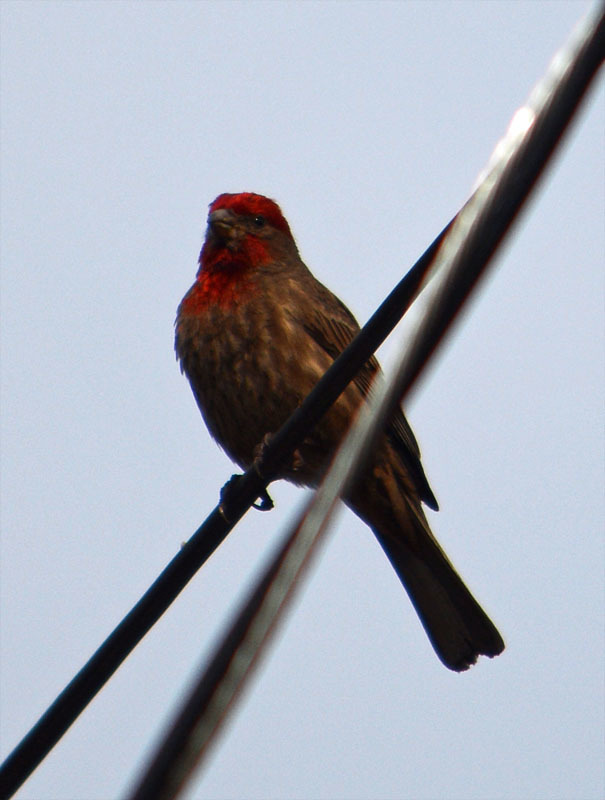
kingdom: Animalia
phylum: Chordata
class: Aves
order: Passeriformes
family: Fringillidae
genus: Haemorhous
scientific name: Haemorhous mexicanus
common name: House finch
